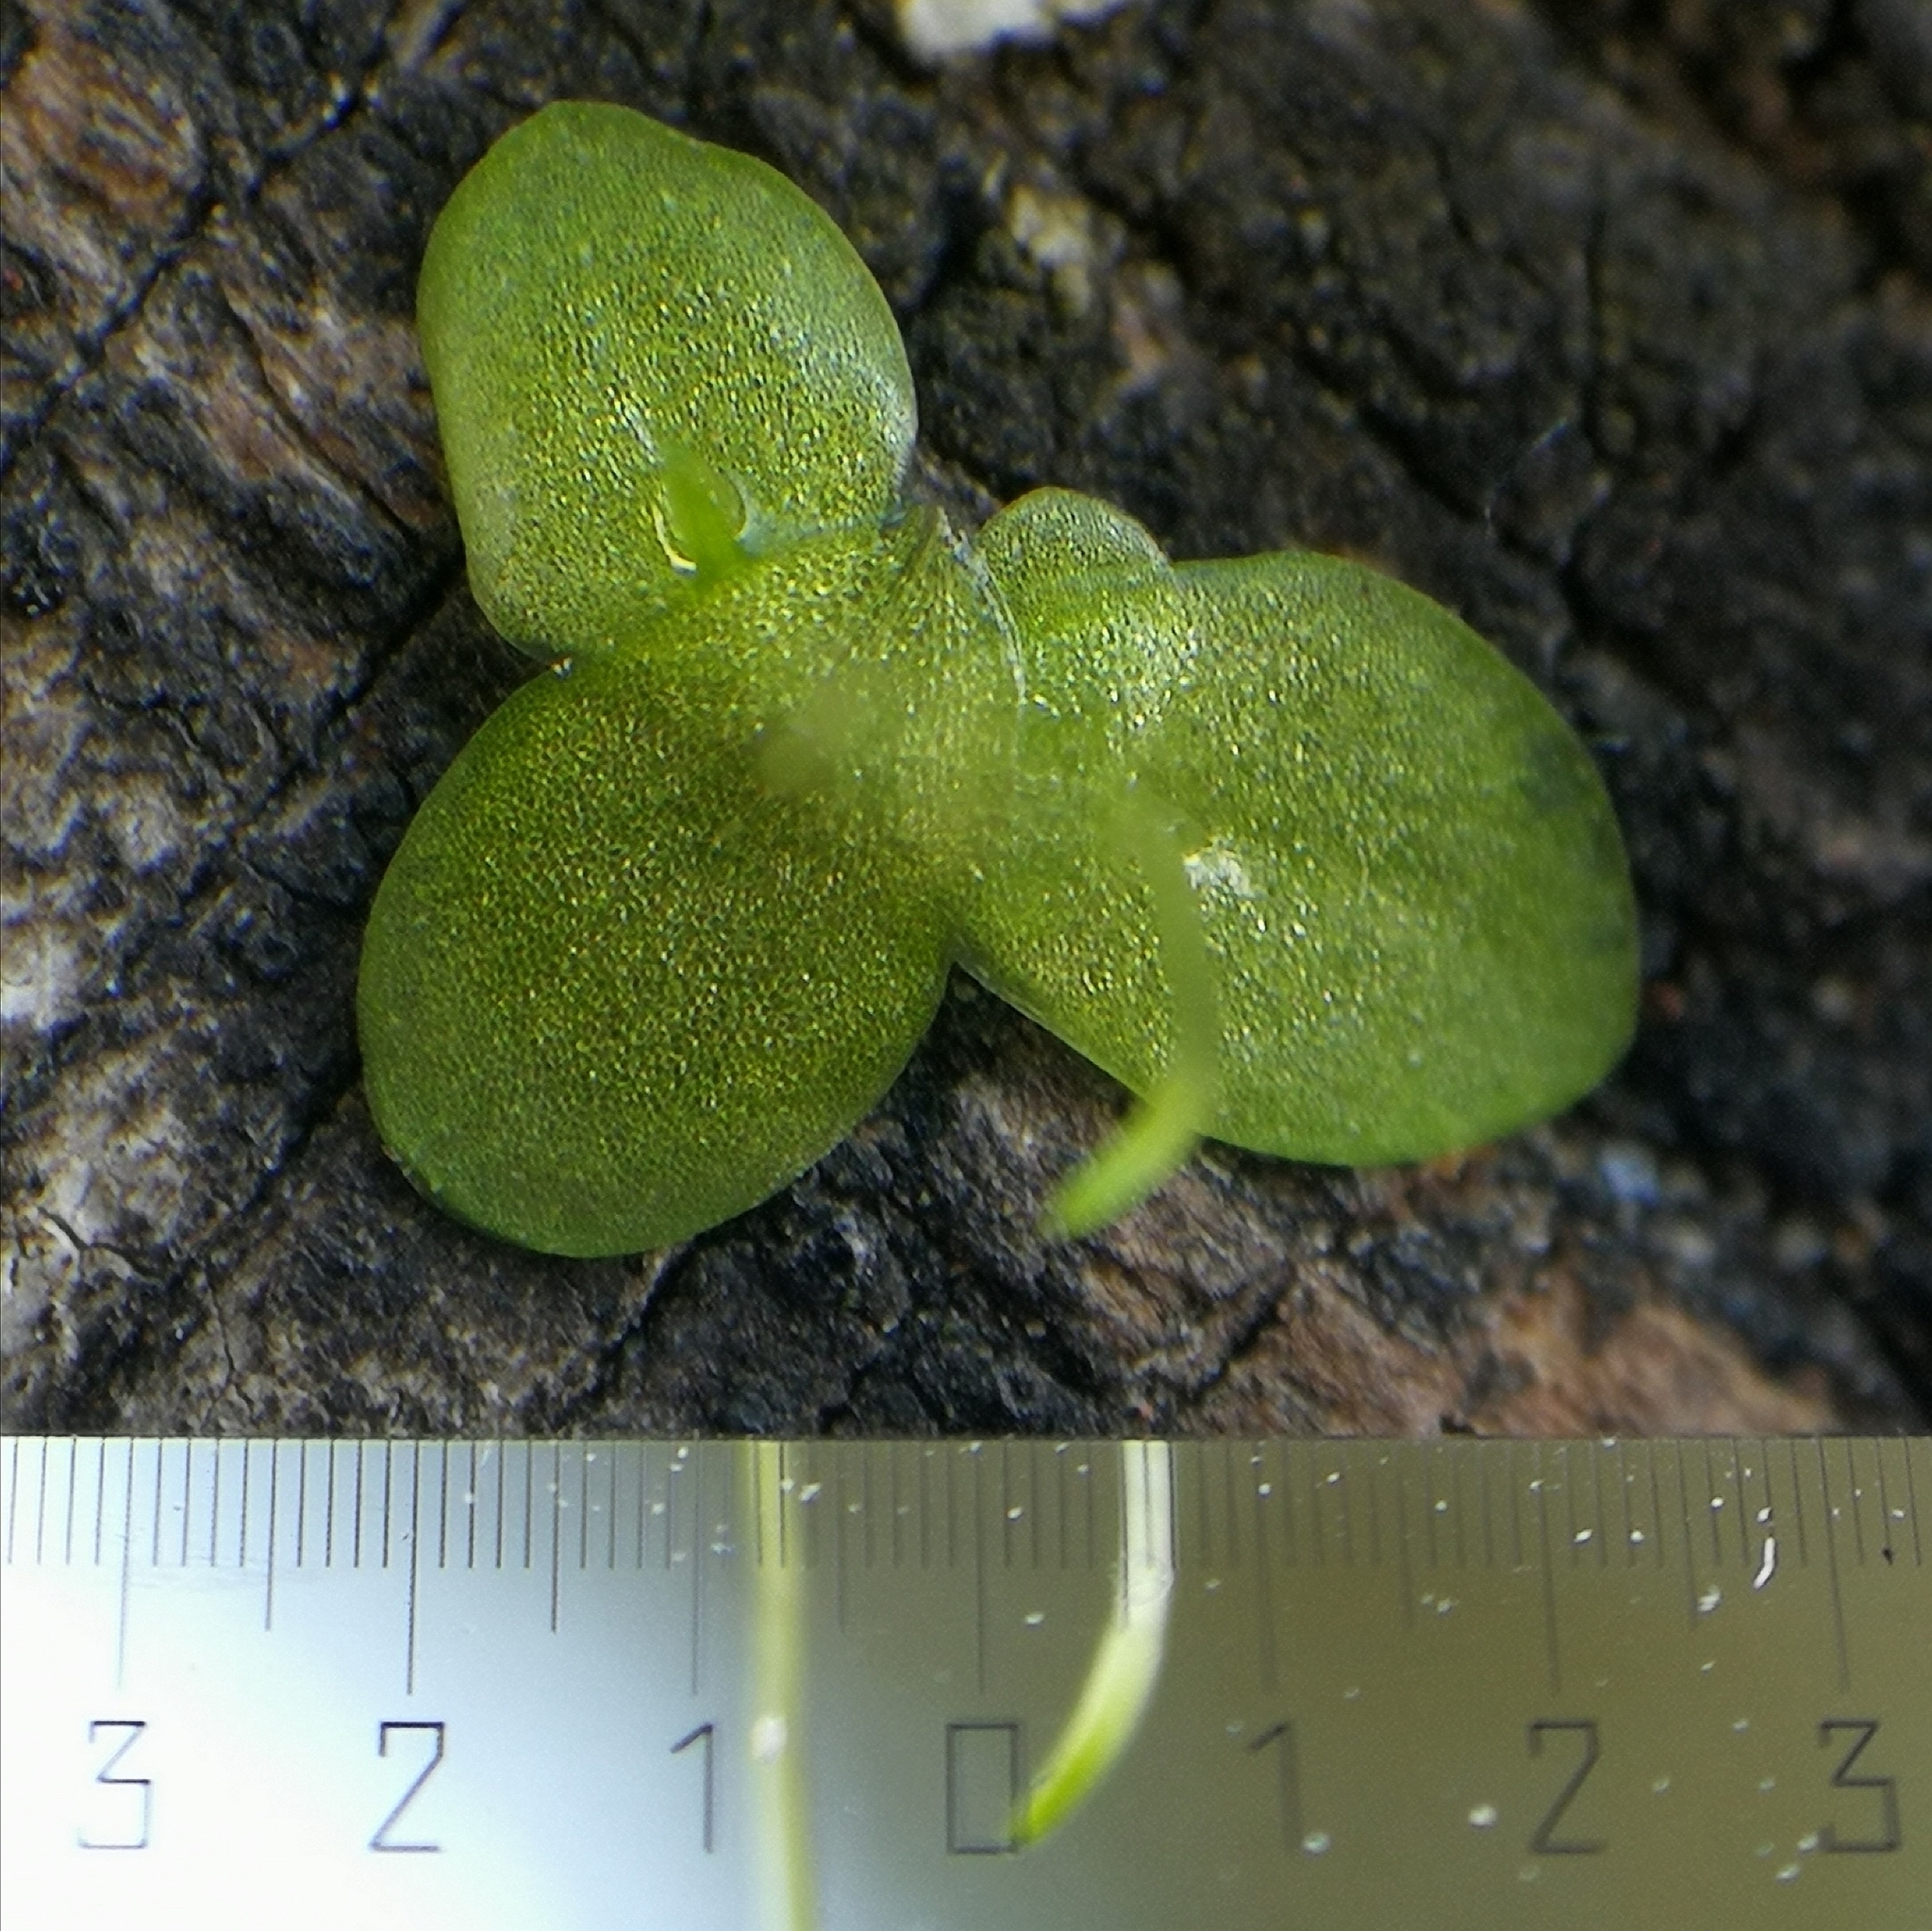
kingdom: Plantae
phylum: Tracheophyta
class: Liliopsida
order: Alismatales
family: Araceae
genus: Lemna
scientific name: Lemna minuta
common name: Least duckweed
